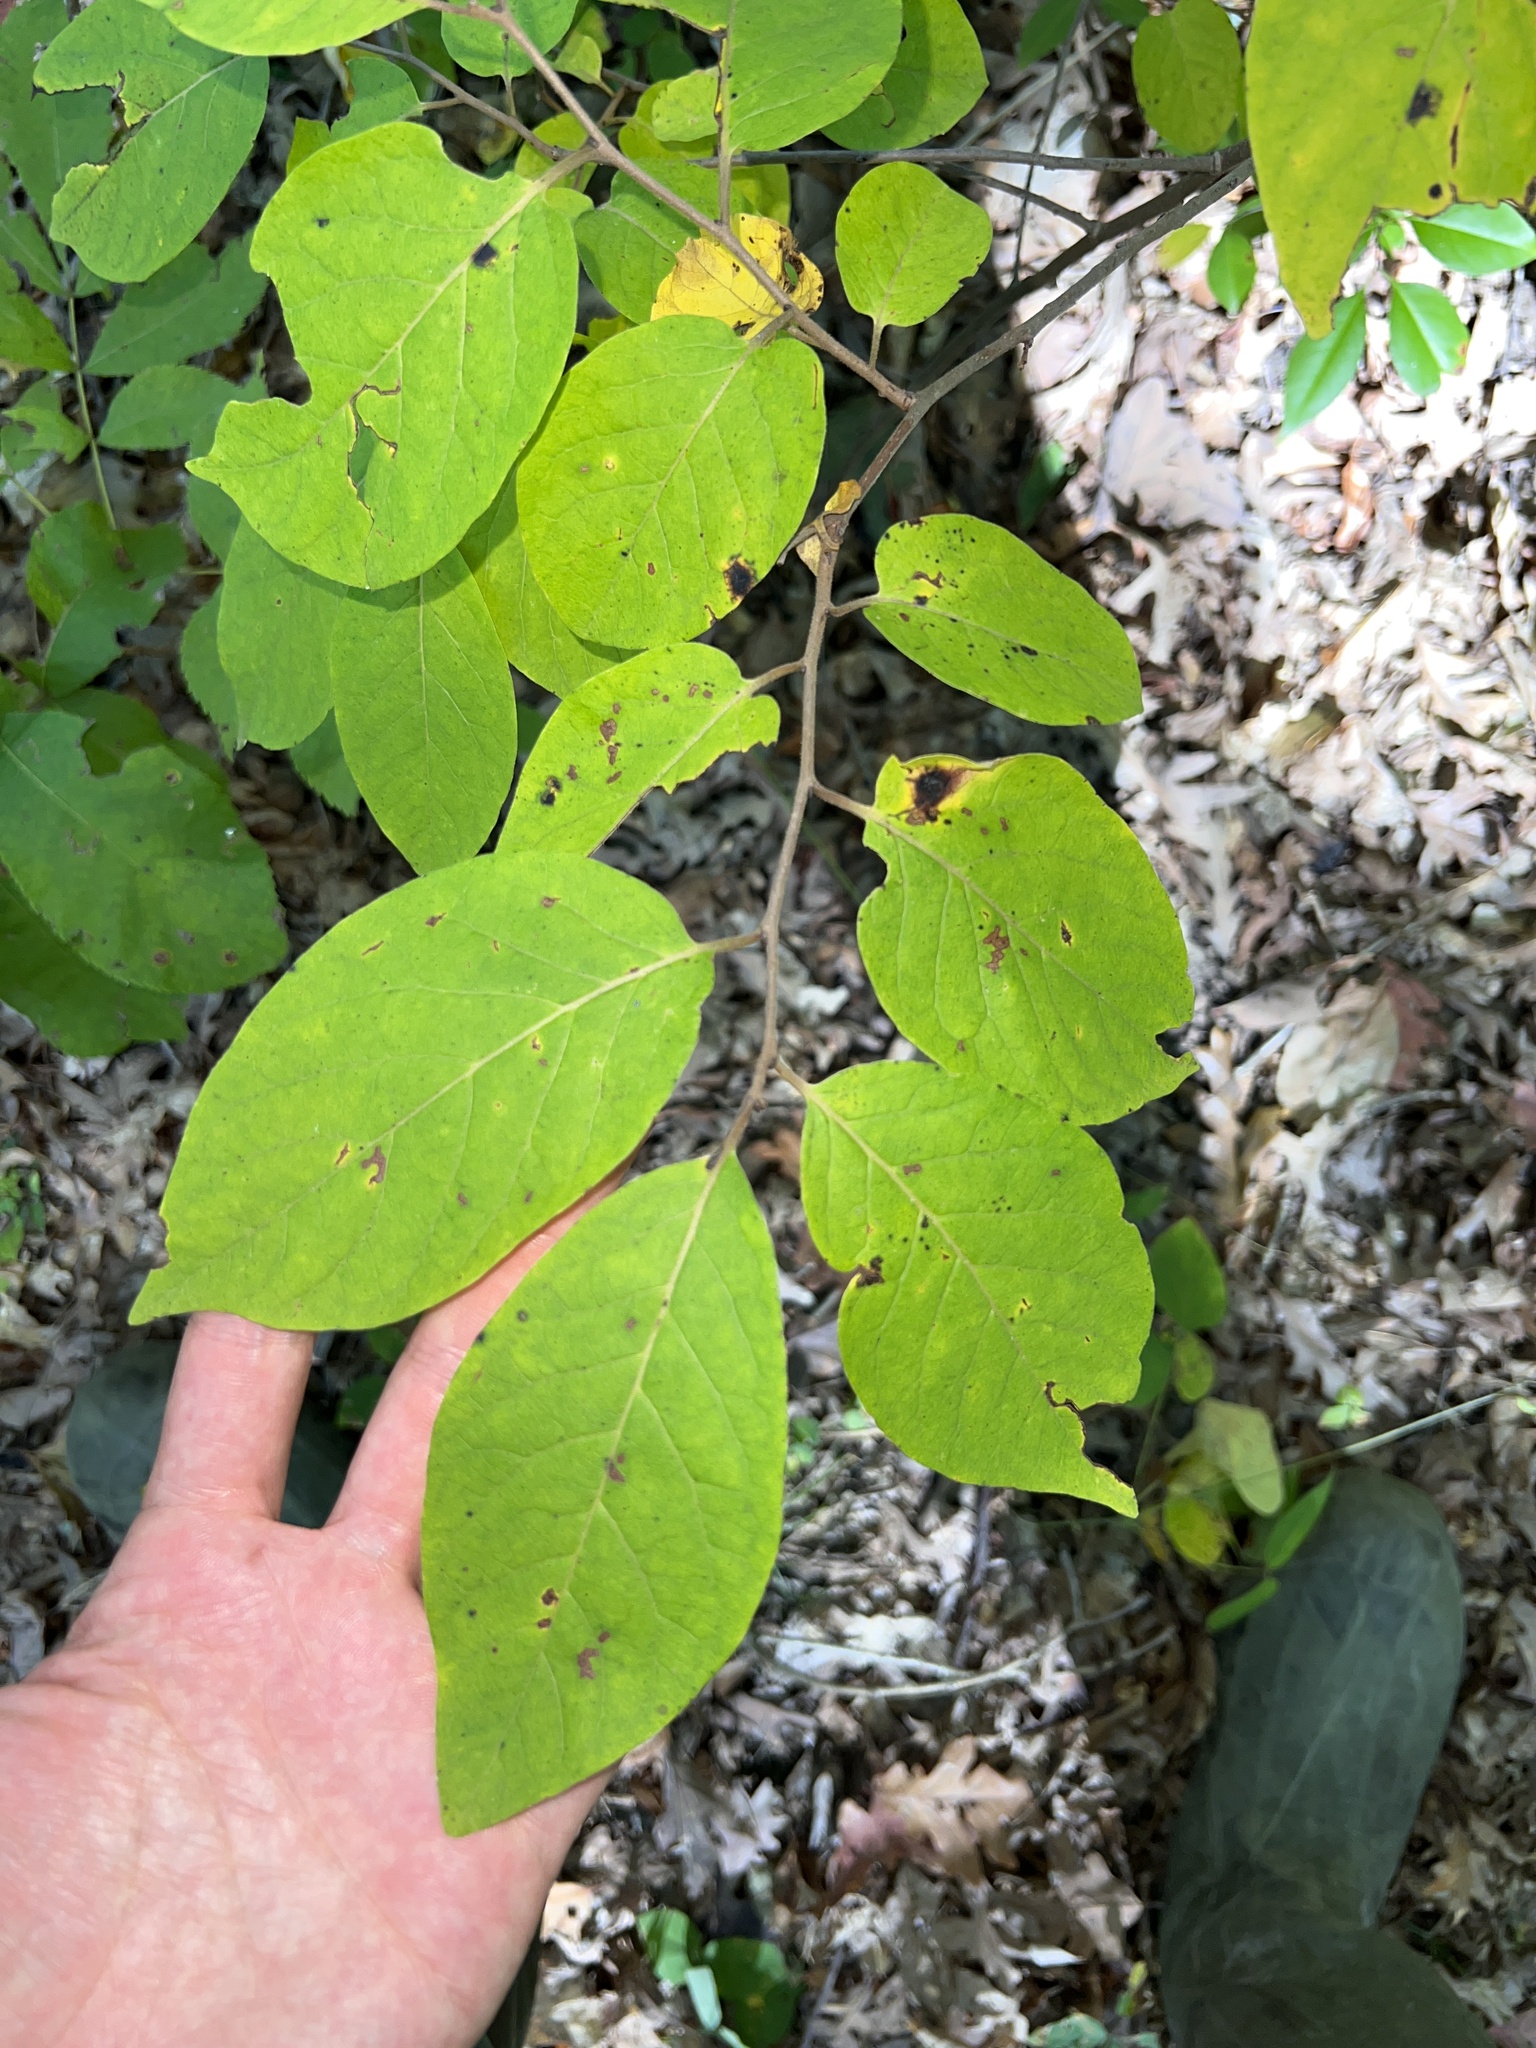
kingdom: Plantae
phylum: Tracheophyta
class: Magnoliopsida
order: Ericales
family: Ebenaceae
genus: Diospyros
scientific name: Diospyros virginiana
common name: Persimmon
